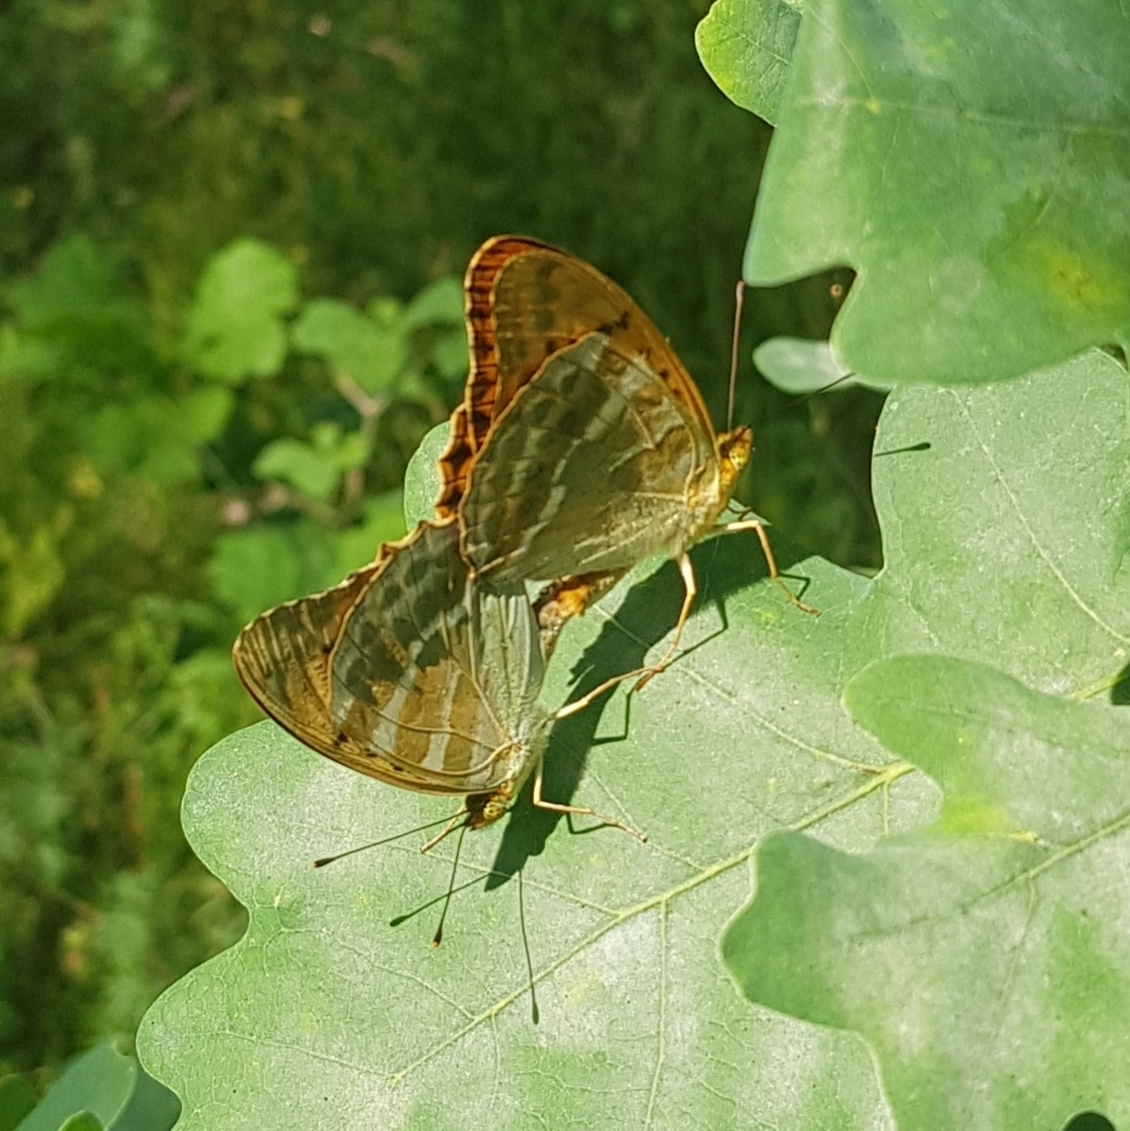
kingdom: Animalia
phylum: Arthropoda
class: Insecta
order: Lepidoptera
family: Nymphalidae
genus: Argynnis
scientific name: Argynnis paphia
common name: Silver-washed fritillary
